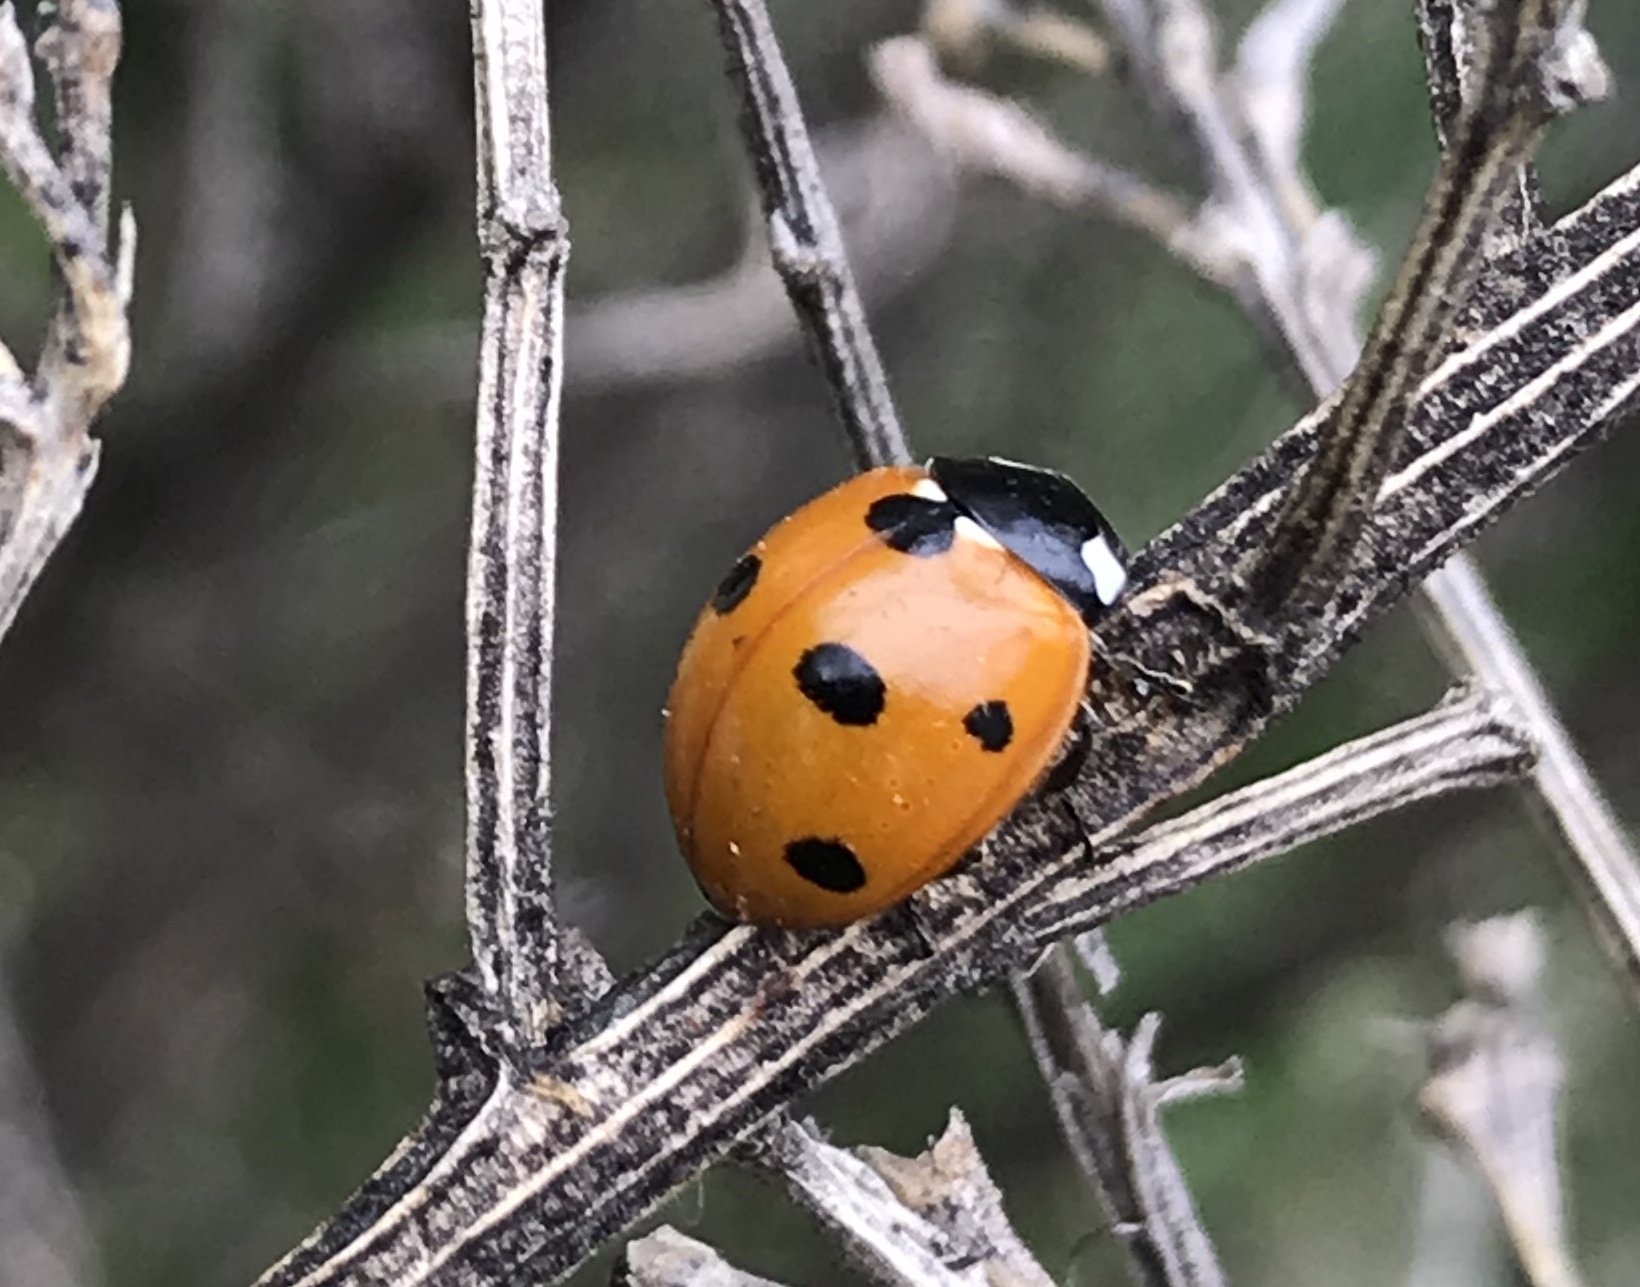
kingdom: Animalia
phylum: Arthropoda
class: Insecta
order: Coleoptera
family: Coccinellidae
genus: Coccinella
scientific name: Coccinella septempunctata
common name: Sevenspotted lady beetle
